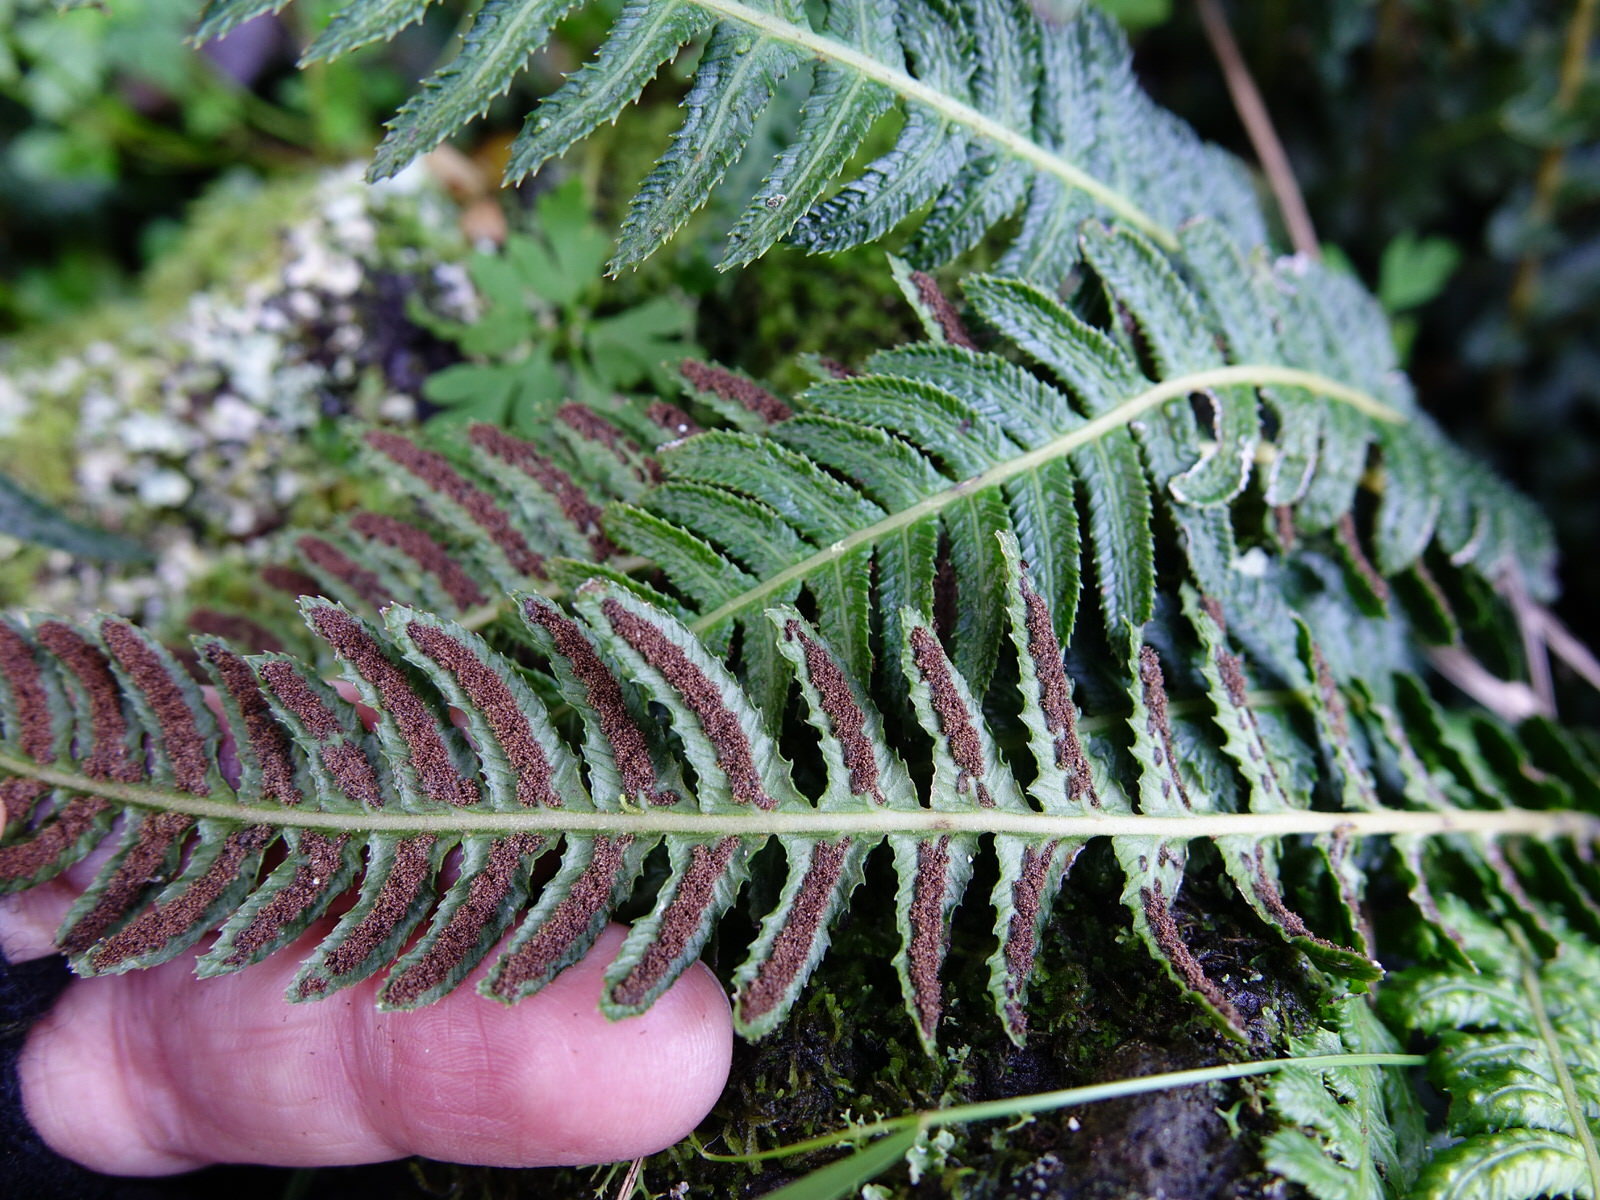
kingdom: Plantae
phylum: Tracheophyta
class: Polypodiopsida
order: Polypodiales
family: Blechnaceae
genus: Doodia
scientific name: Doodia australis
